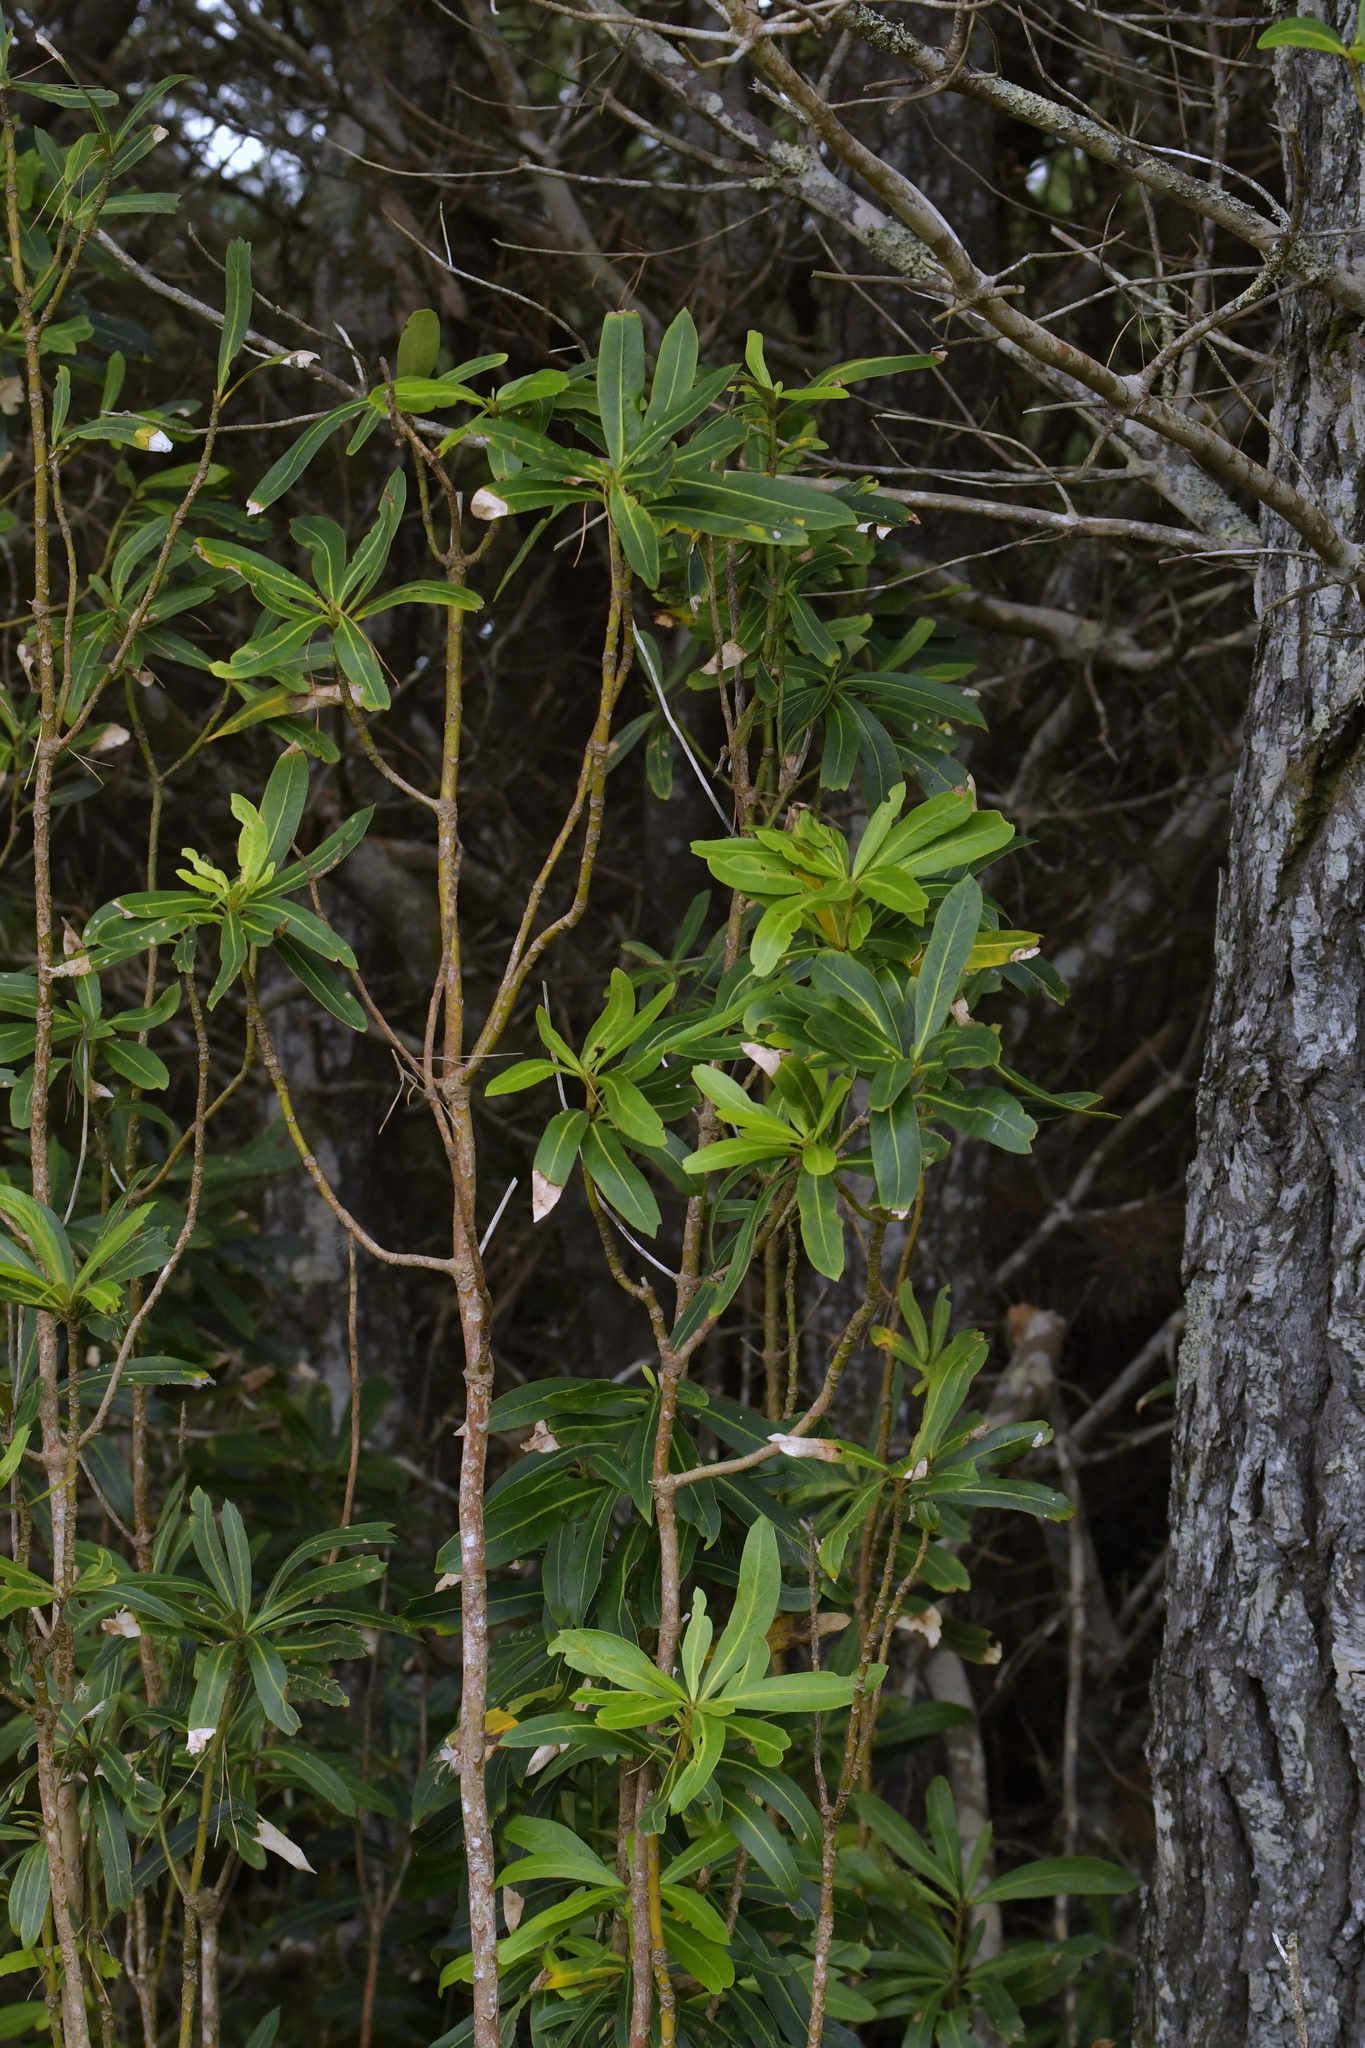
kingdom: Plantae
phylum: Tracheophyta
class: Magnoliopsida
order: Apiales
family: Araliaceae
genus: Pseudopanax
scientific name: Pseudopanax chathamicus
